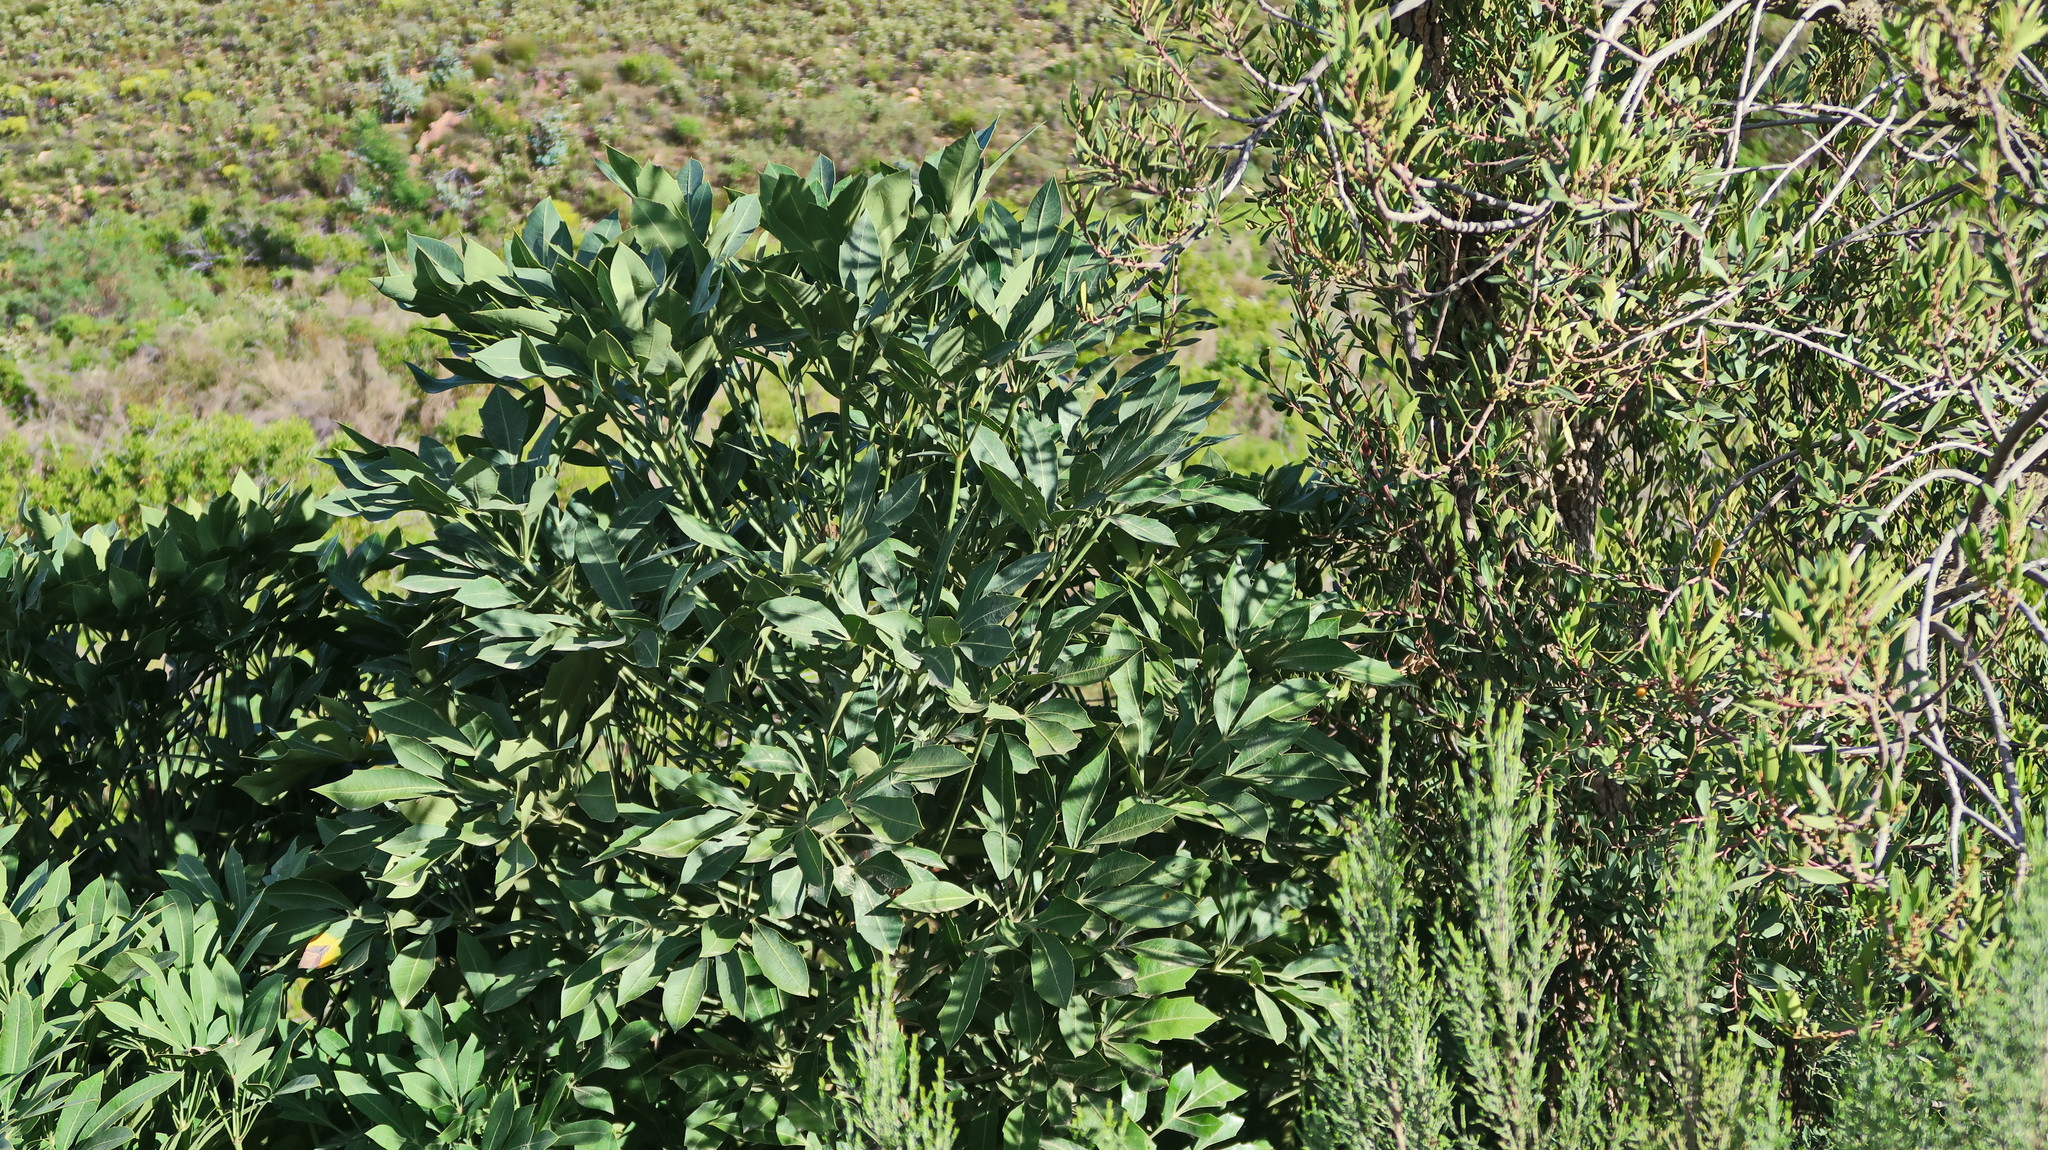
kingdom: Plantae
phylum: Tracheophyta
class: Magnoliopsida
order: Apiales
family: Araliaceae
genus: Cussonia
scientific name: Cussonia spicata
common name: Common cabbagetree
